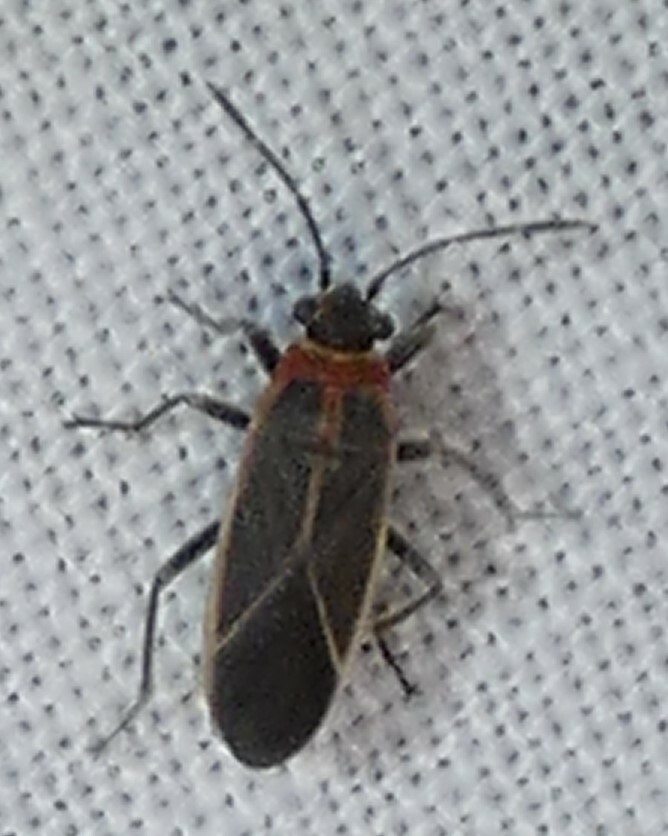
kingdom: Animalia
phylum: Arthropoda
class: Insecta
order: Hemiptera
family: Lygaeidae
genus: Ochrimnus
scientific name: Ochrimnus mimulus
